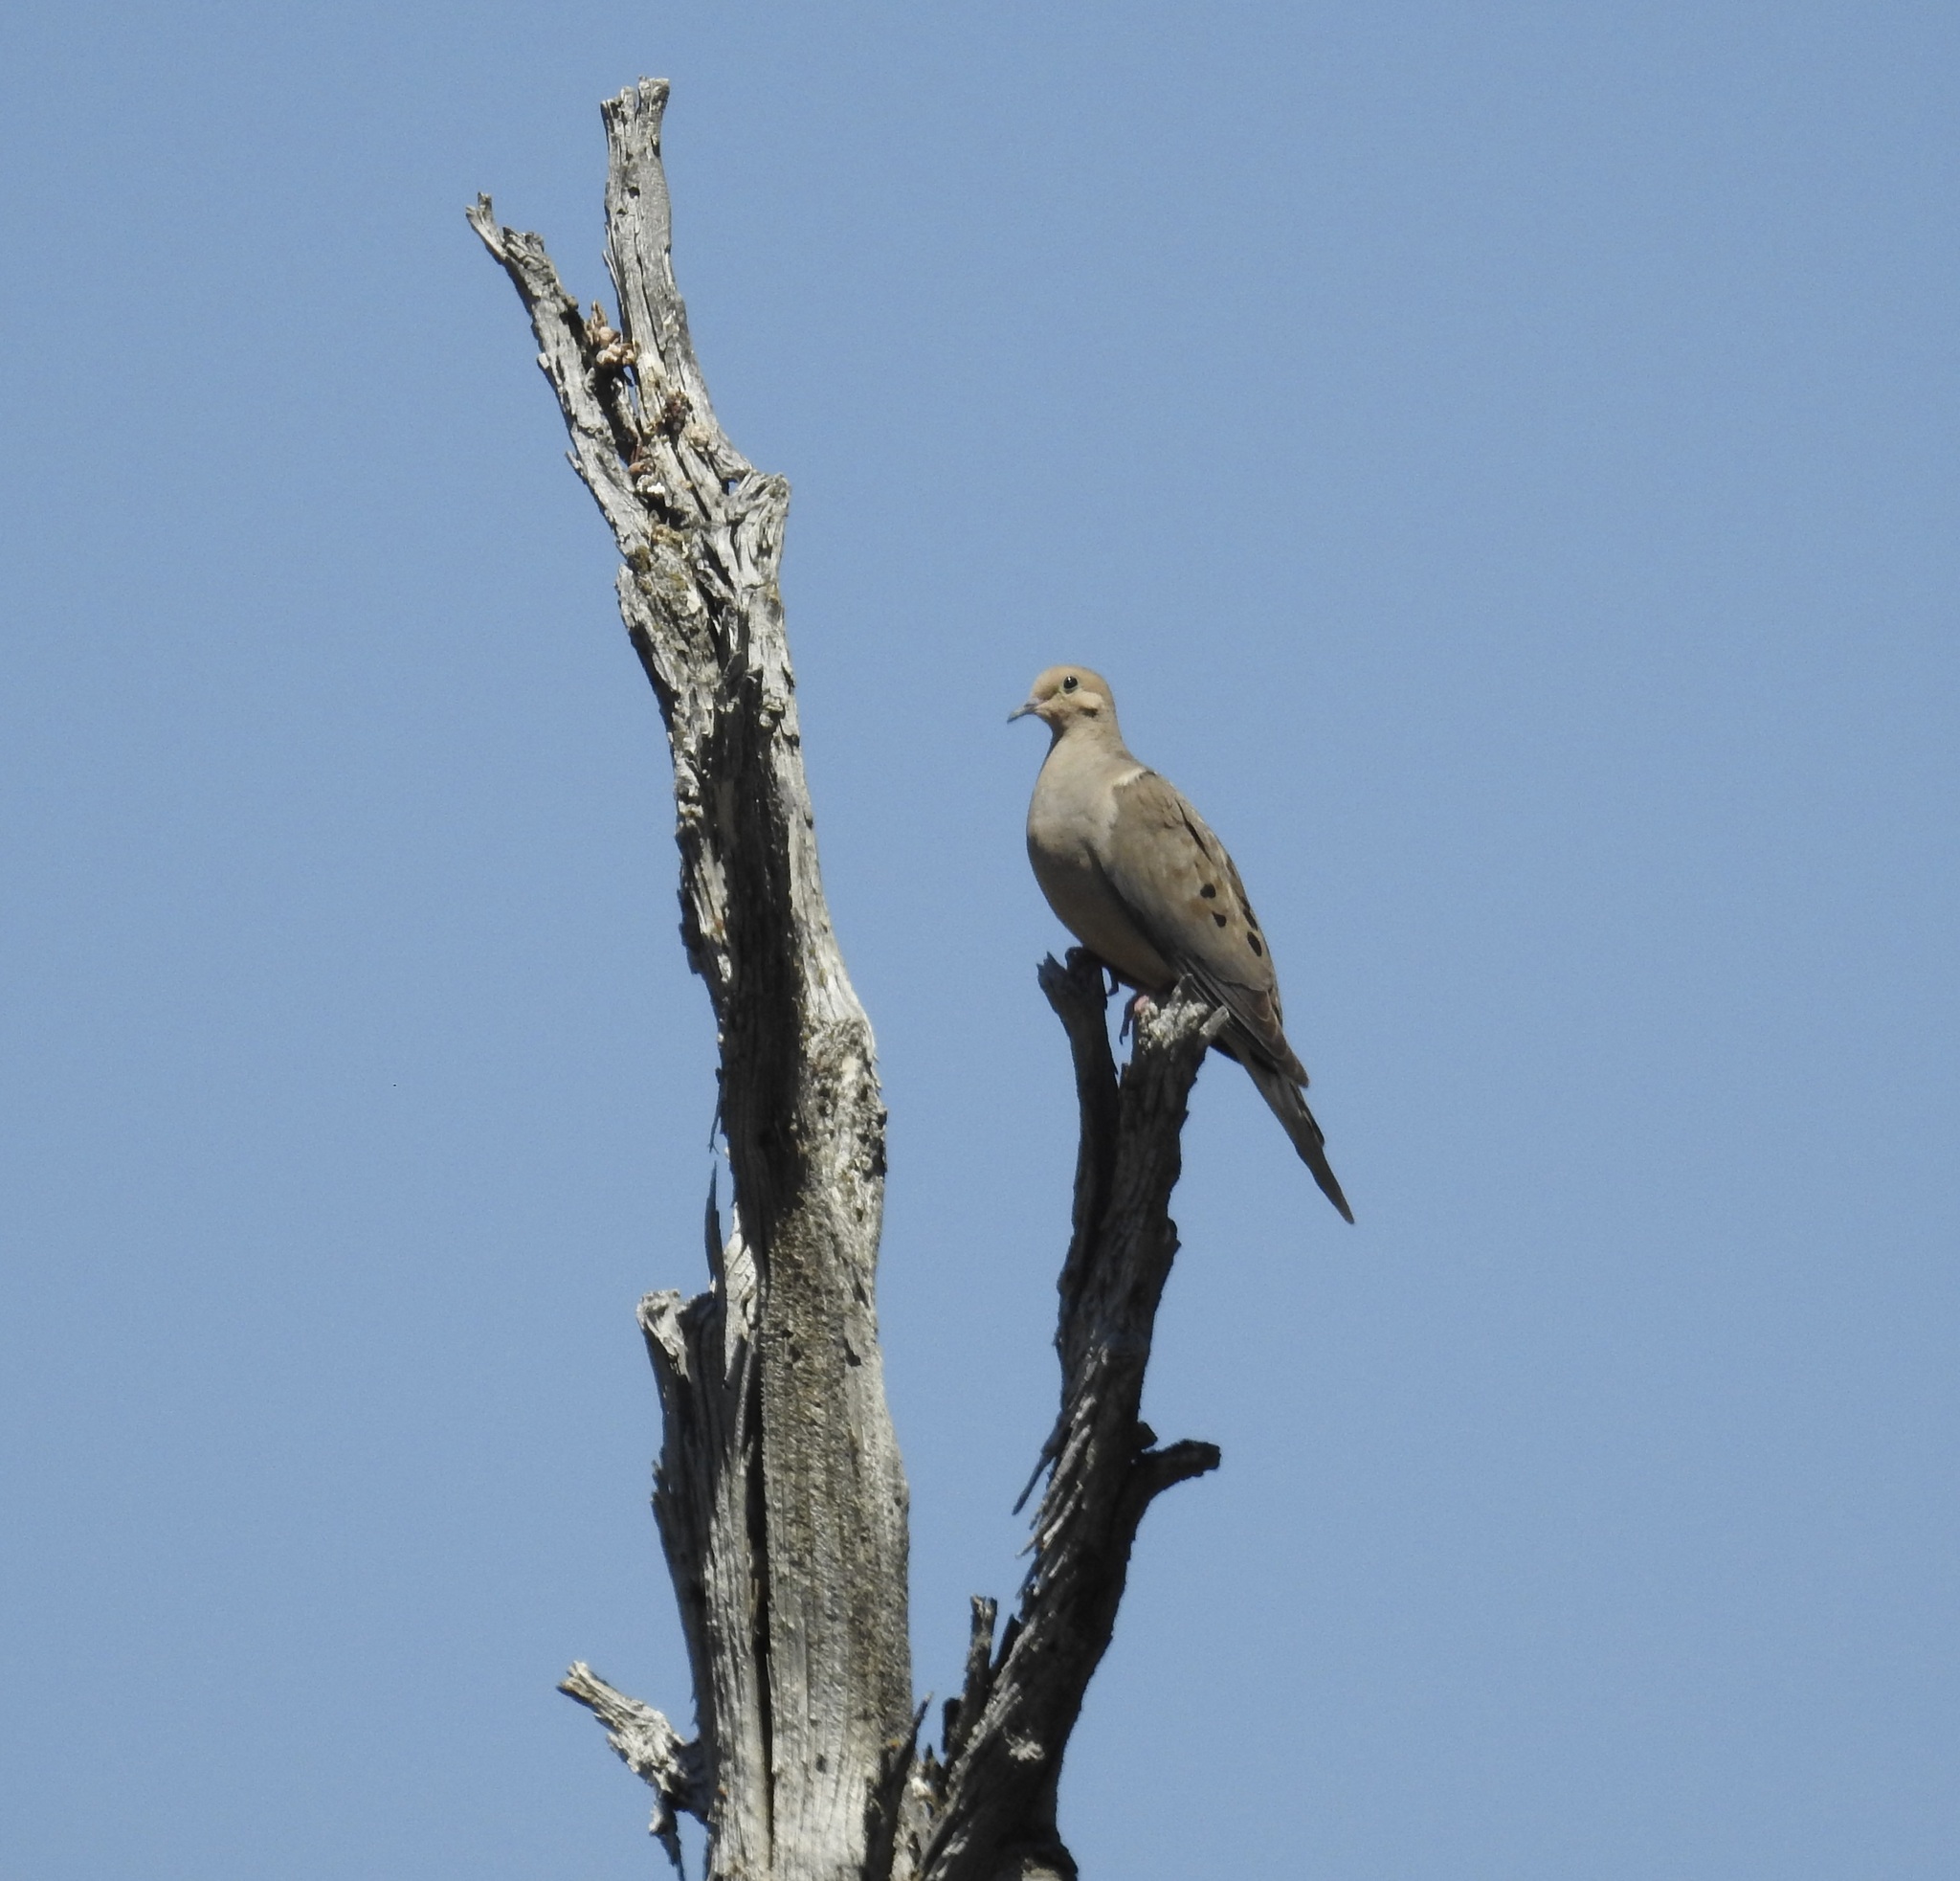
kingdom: Animalia
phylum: Chordata
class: Aves
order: Columbiformes
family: Columbidae
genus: Zenaida
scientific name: Zenaida macroura
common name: Mourning dove
